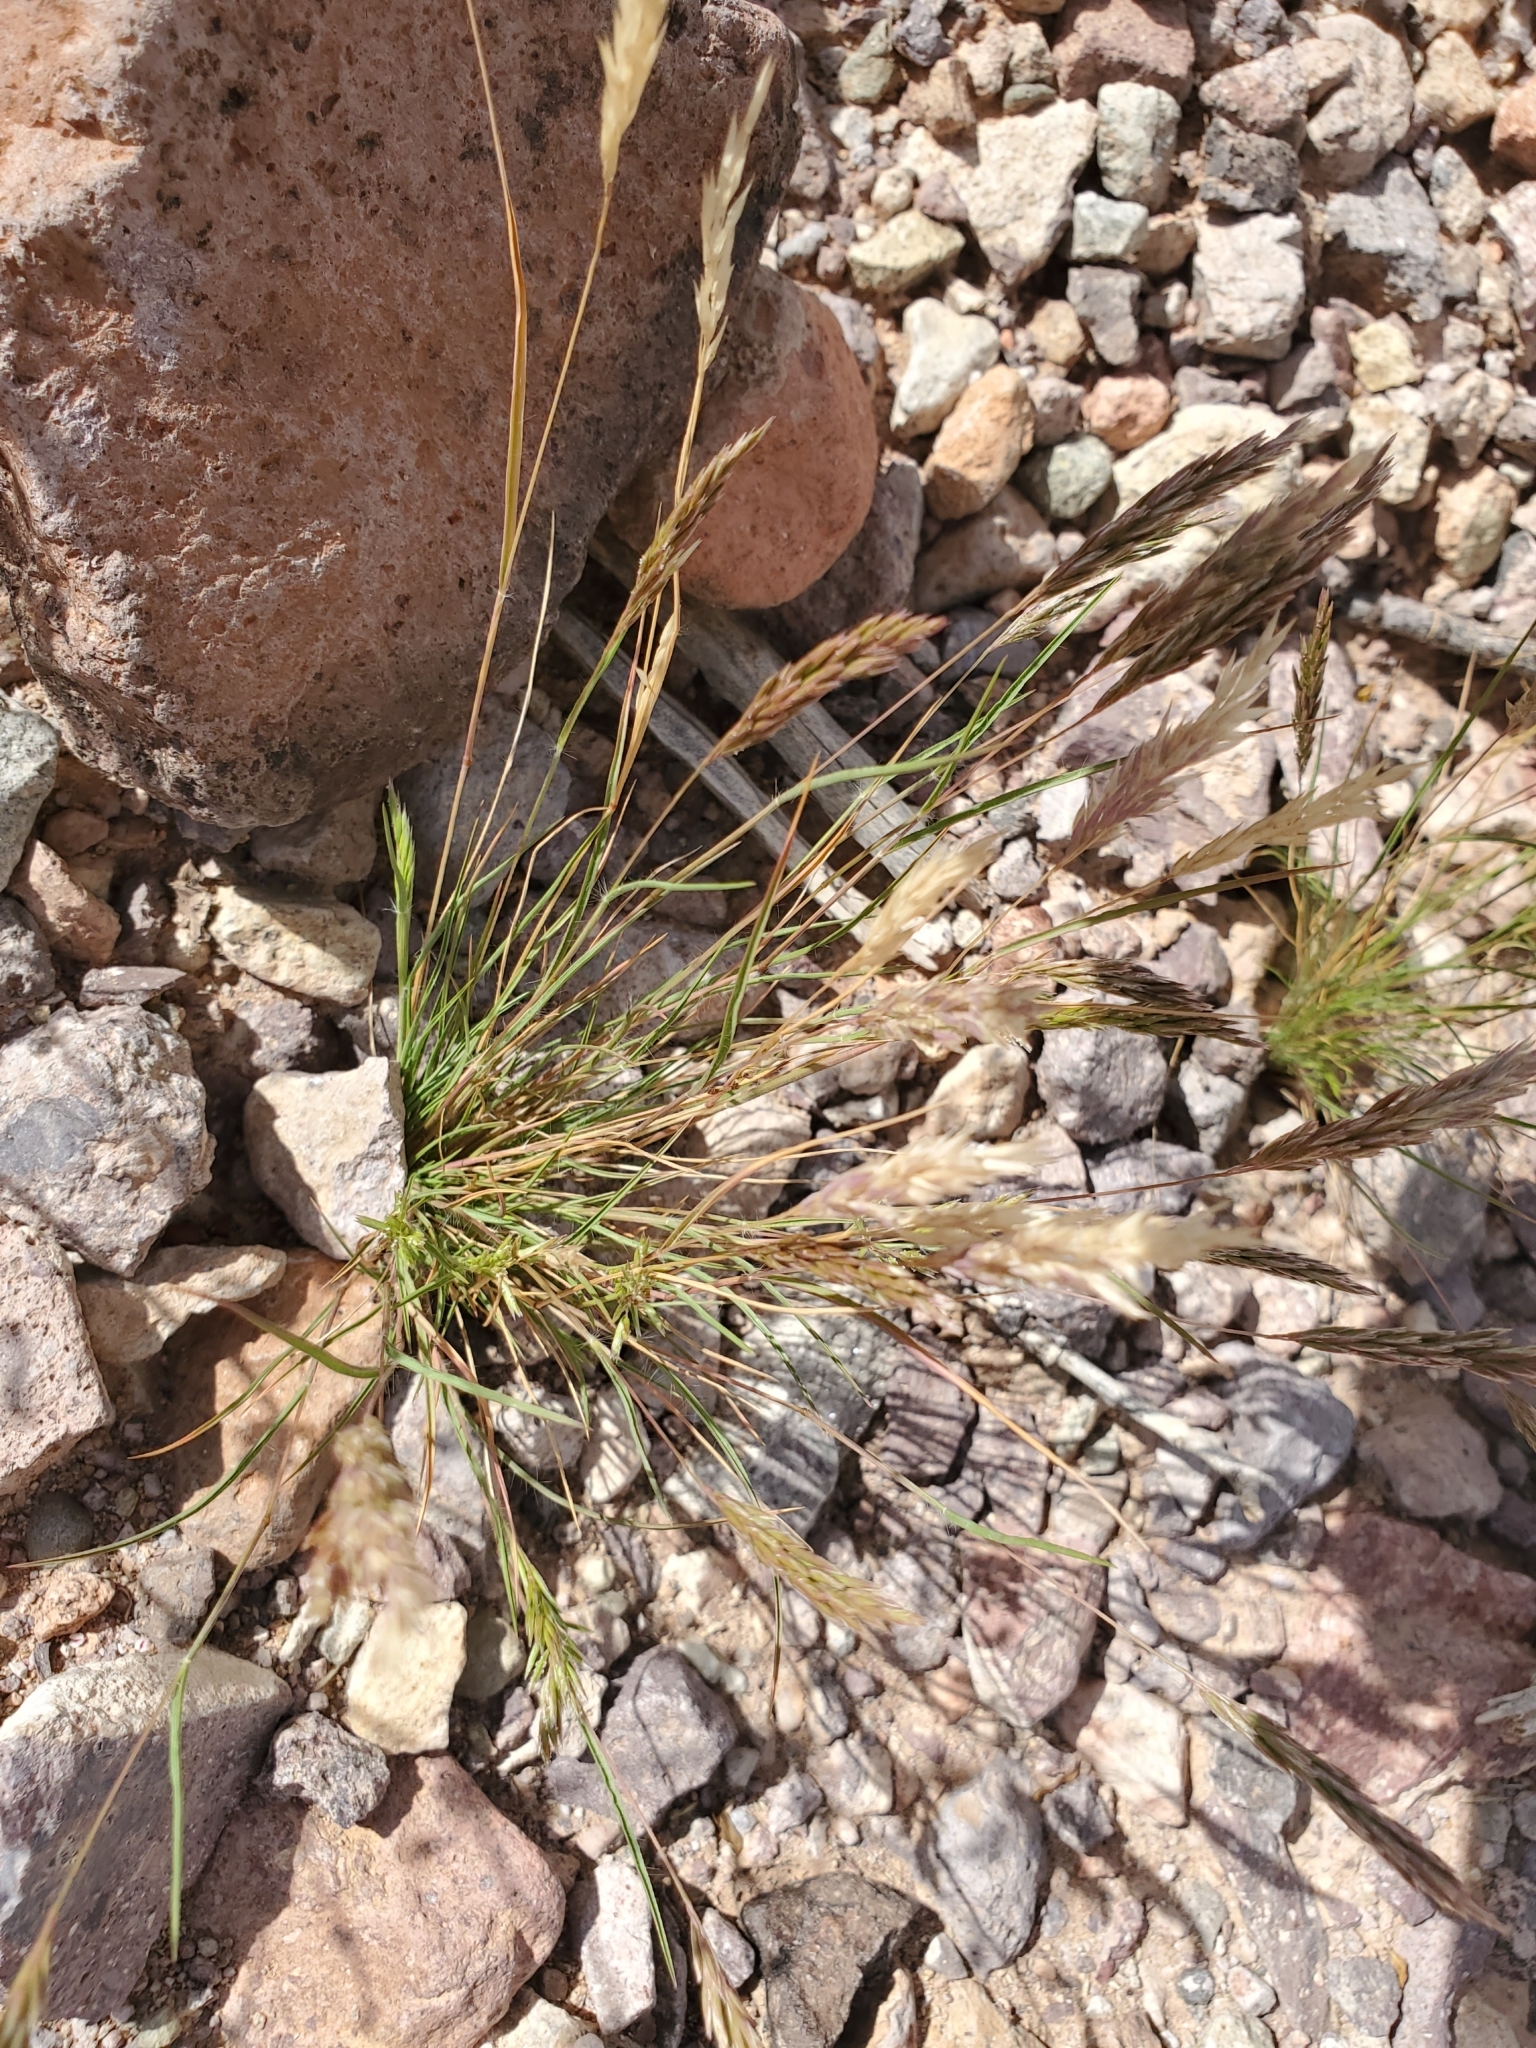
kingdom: Plantae
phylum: Tracheophyta
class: Liliopsida
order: Poales
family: Poaceae
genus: Schismus
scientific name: Schismus barbatus
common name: Kelch-grass
